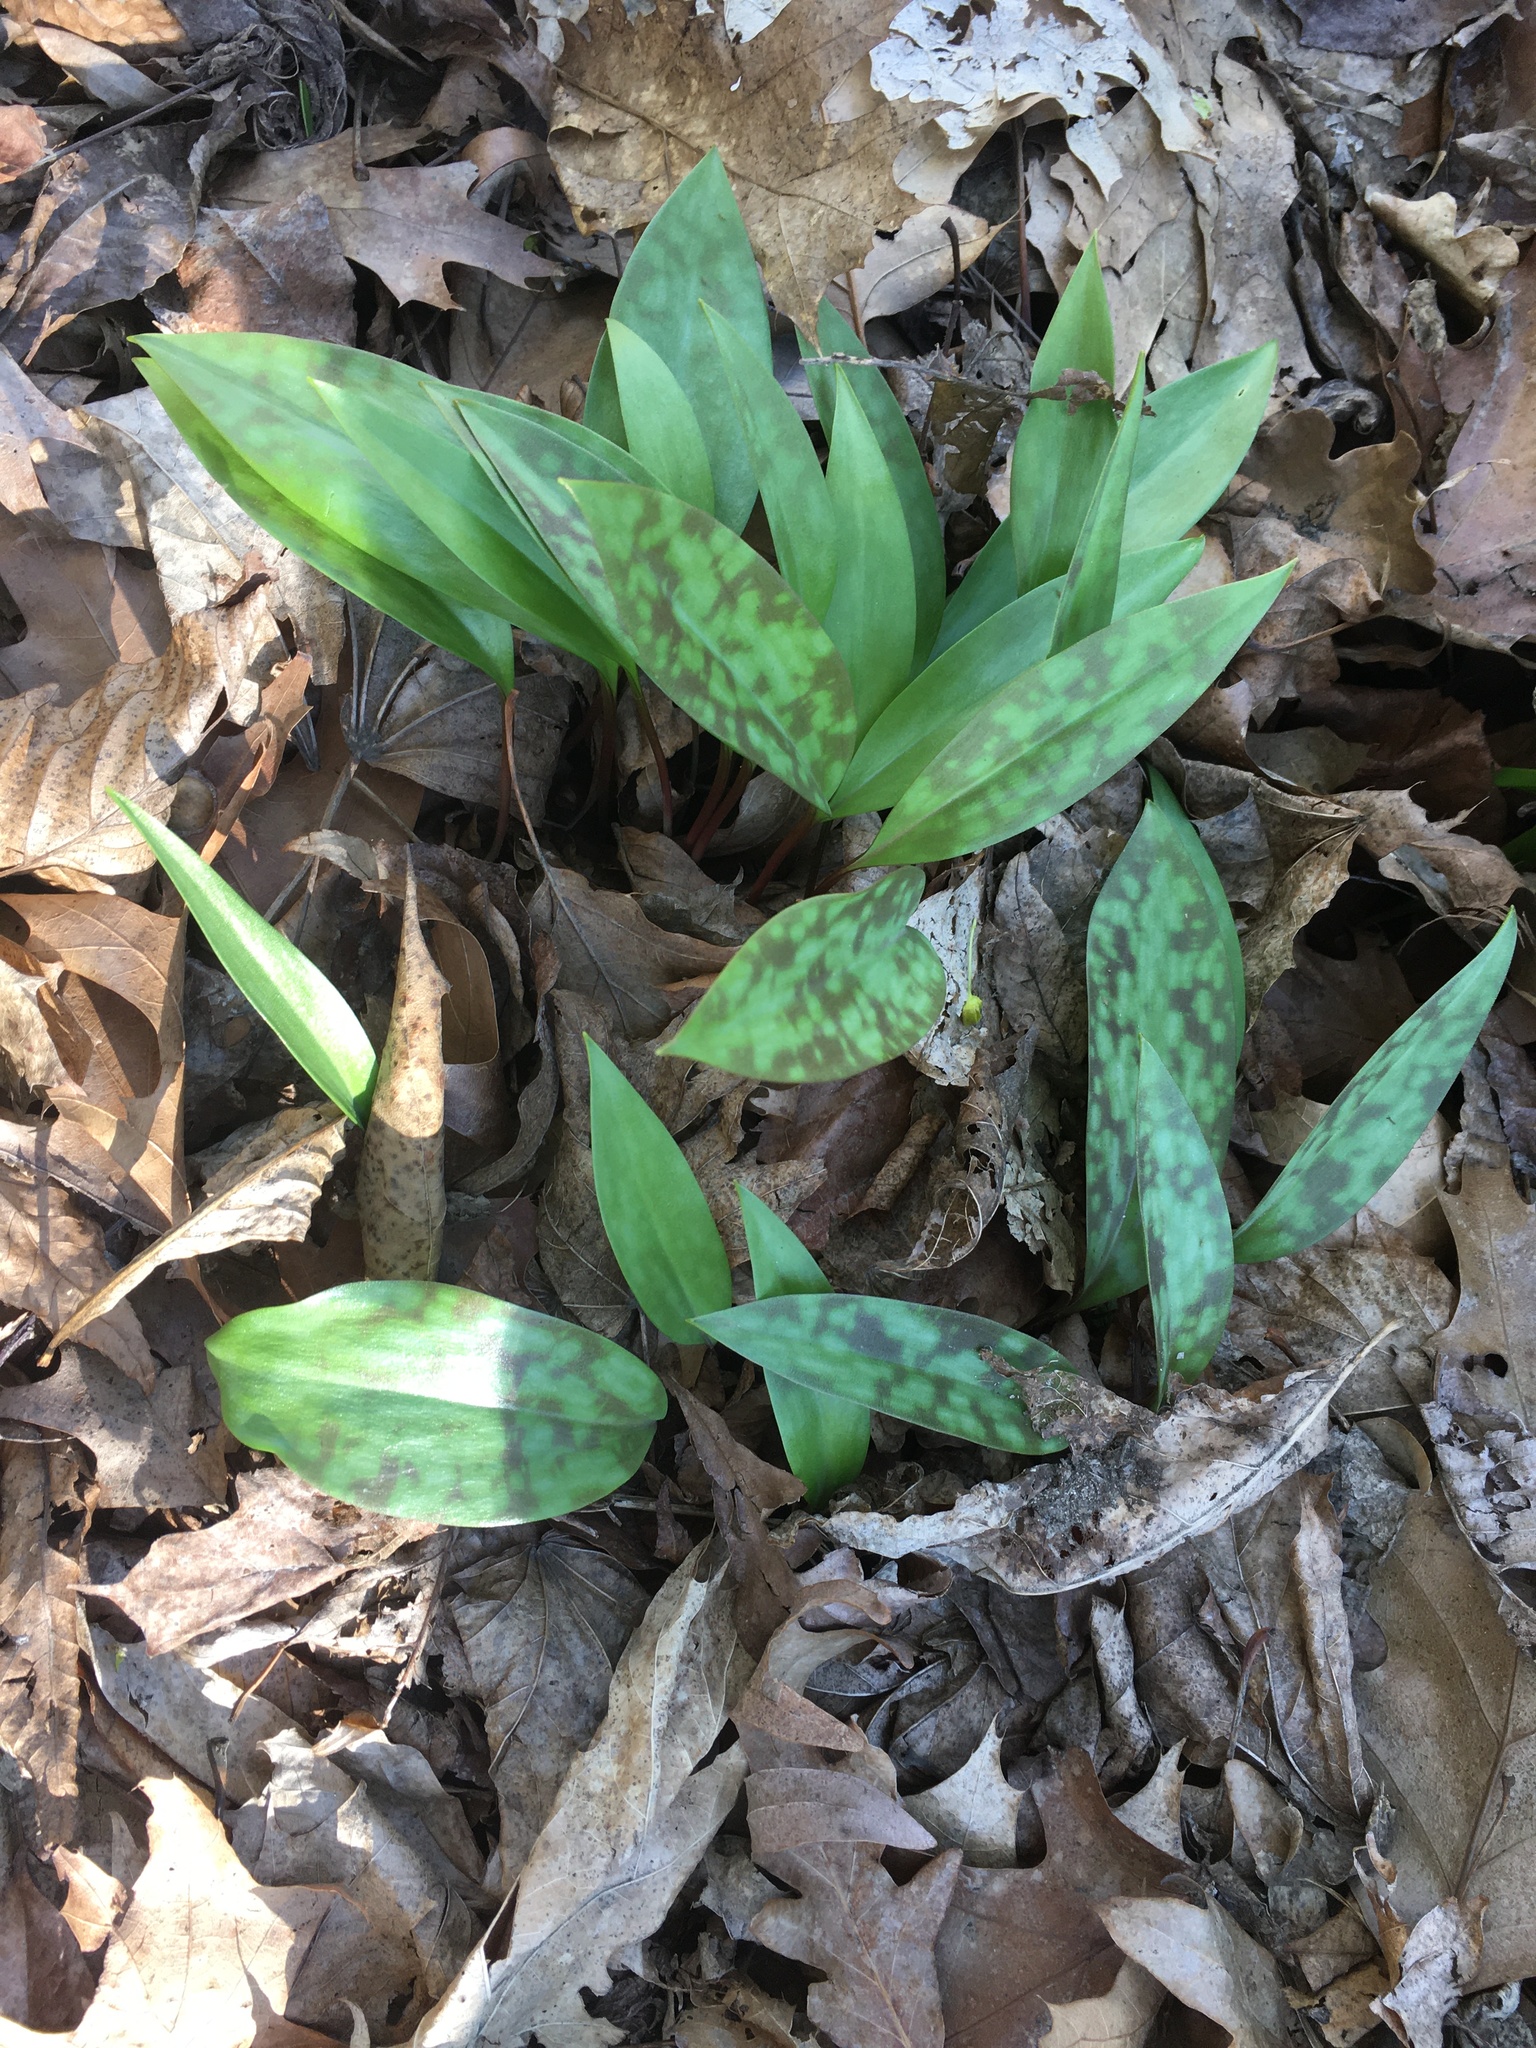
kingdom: Plantae
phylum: Tracheophyta
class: Liliopsida
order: Liliales
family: Liliaceae
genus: Erythronium
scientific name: Erythronium americanum
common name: Yellow adder's-tongue
